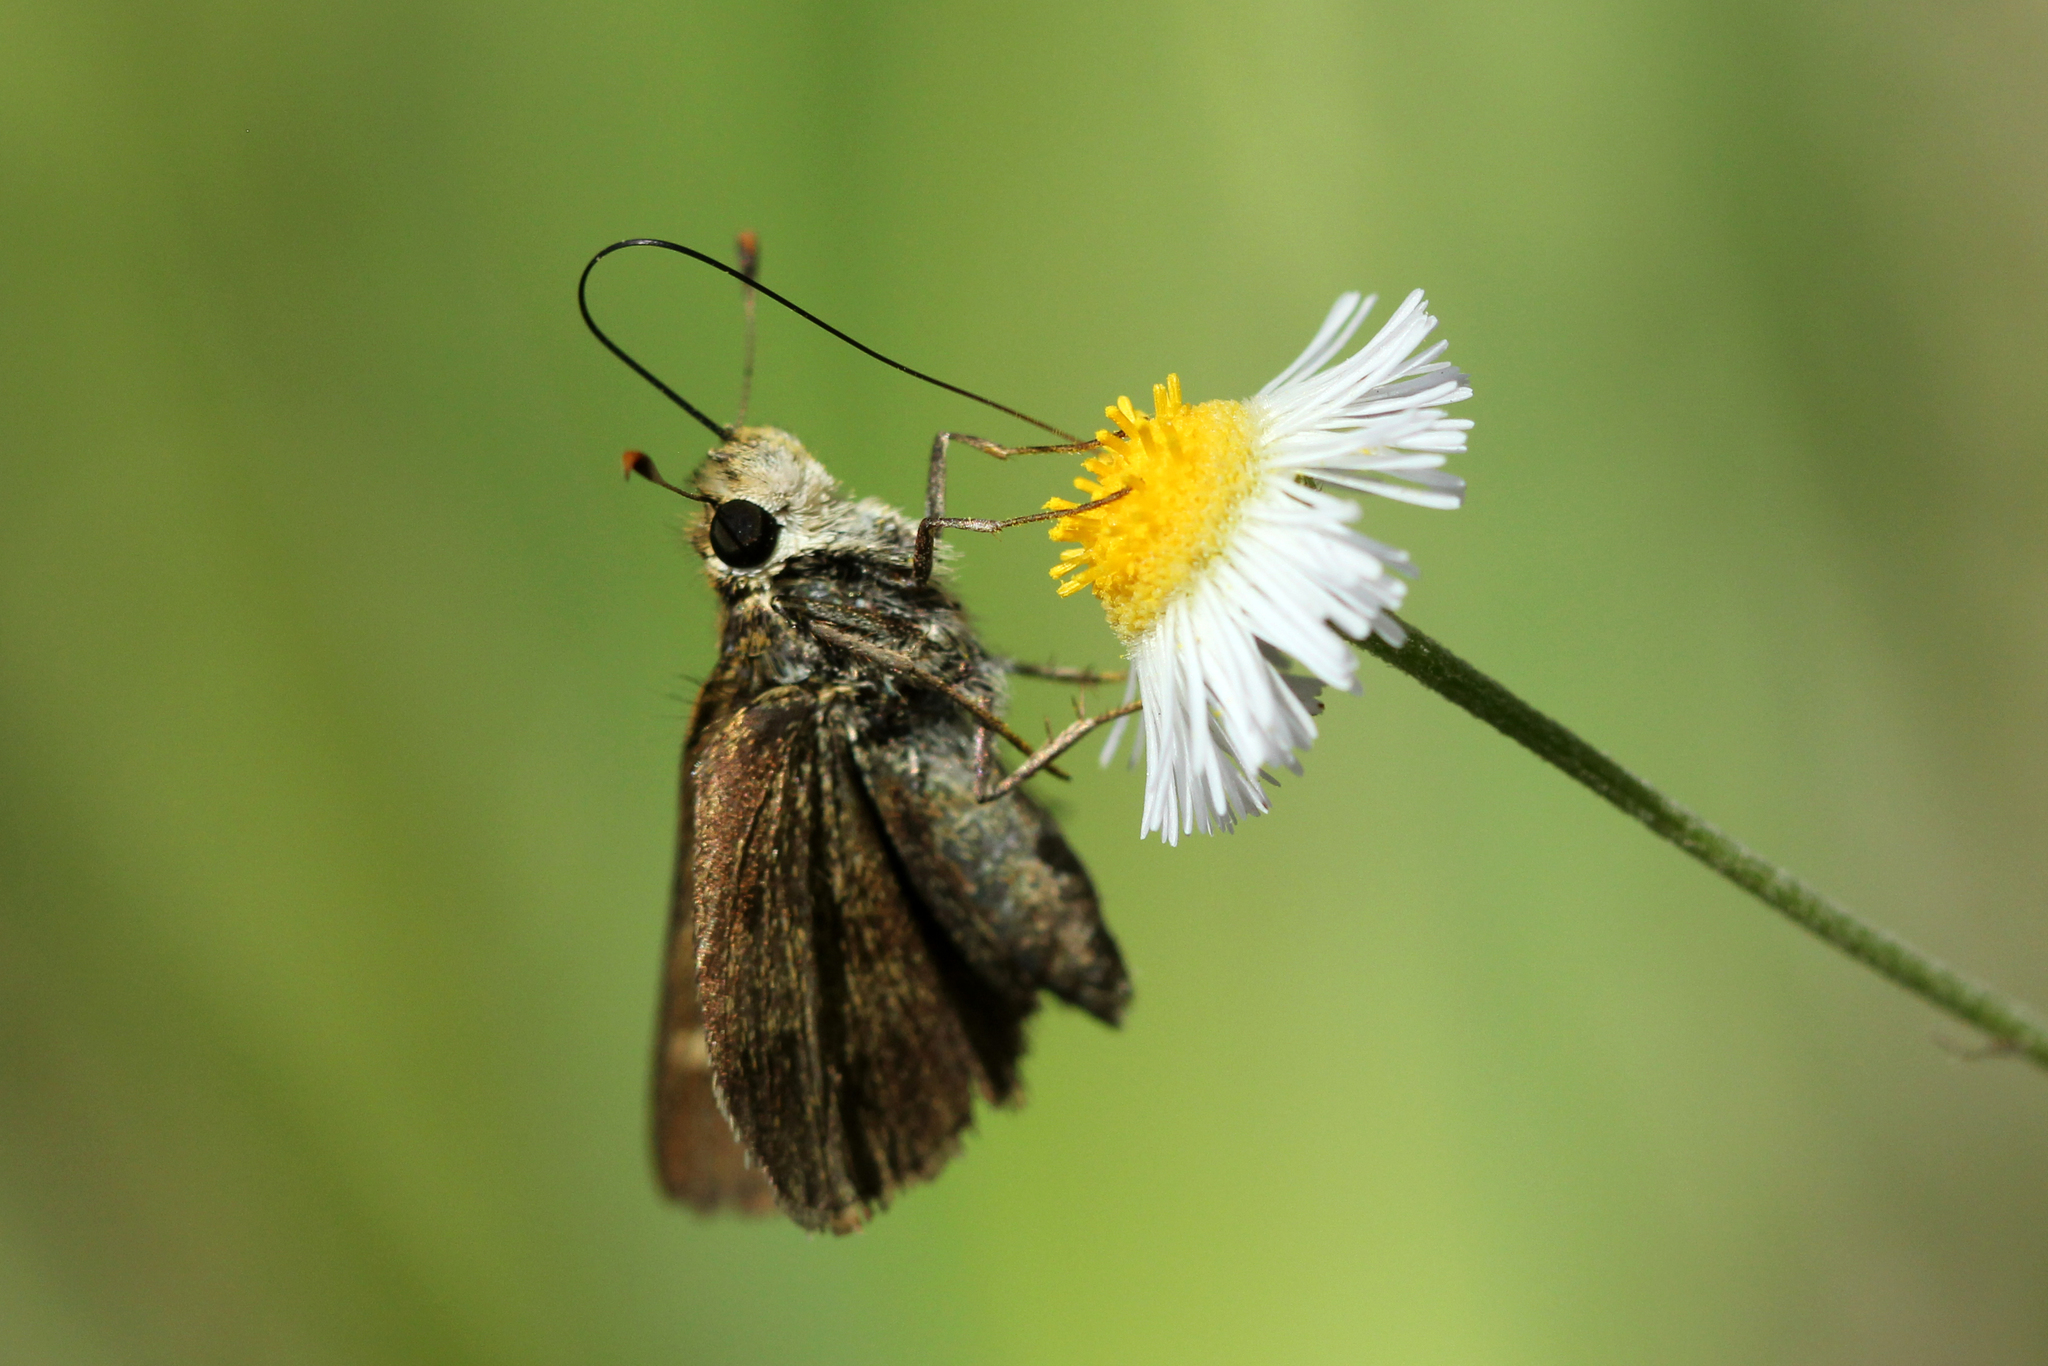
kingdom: Animalia
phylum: Arthropoda
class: Insecta
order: Lepidoptera
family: Hesperiidae
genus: Polites
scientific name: Polites vibex
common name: Whirlabout
